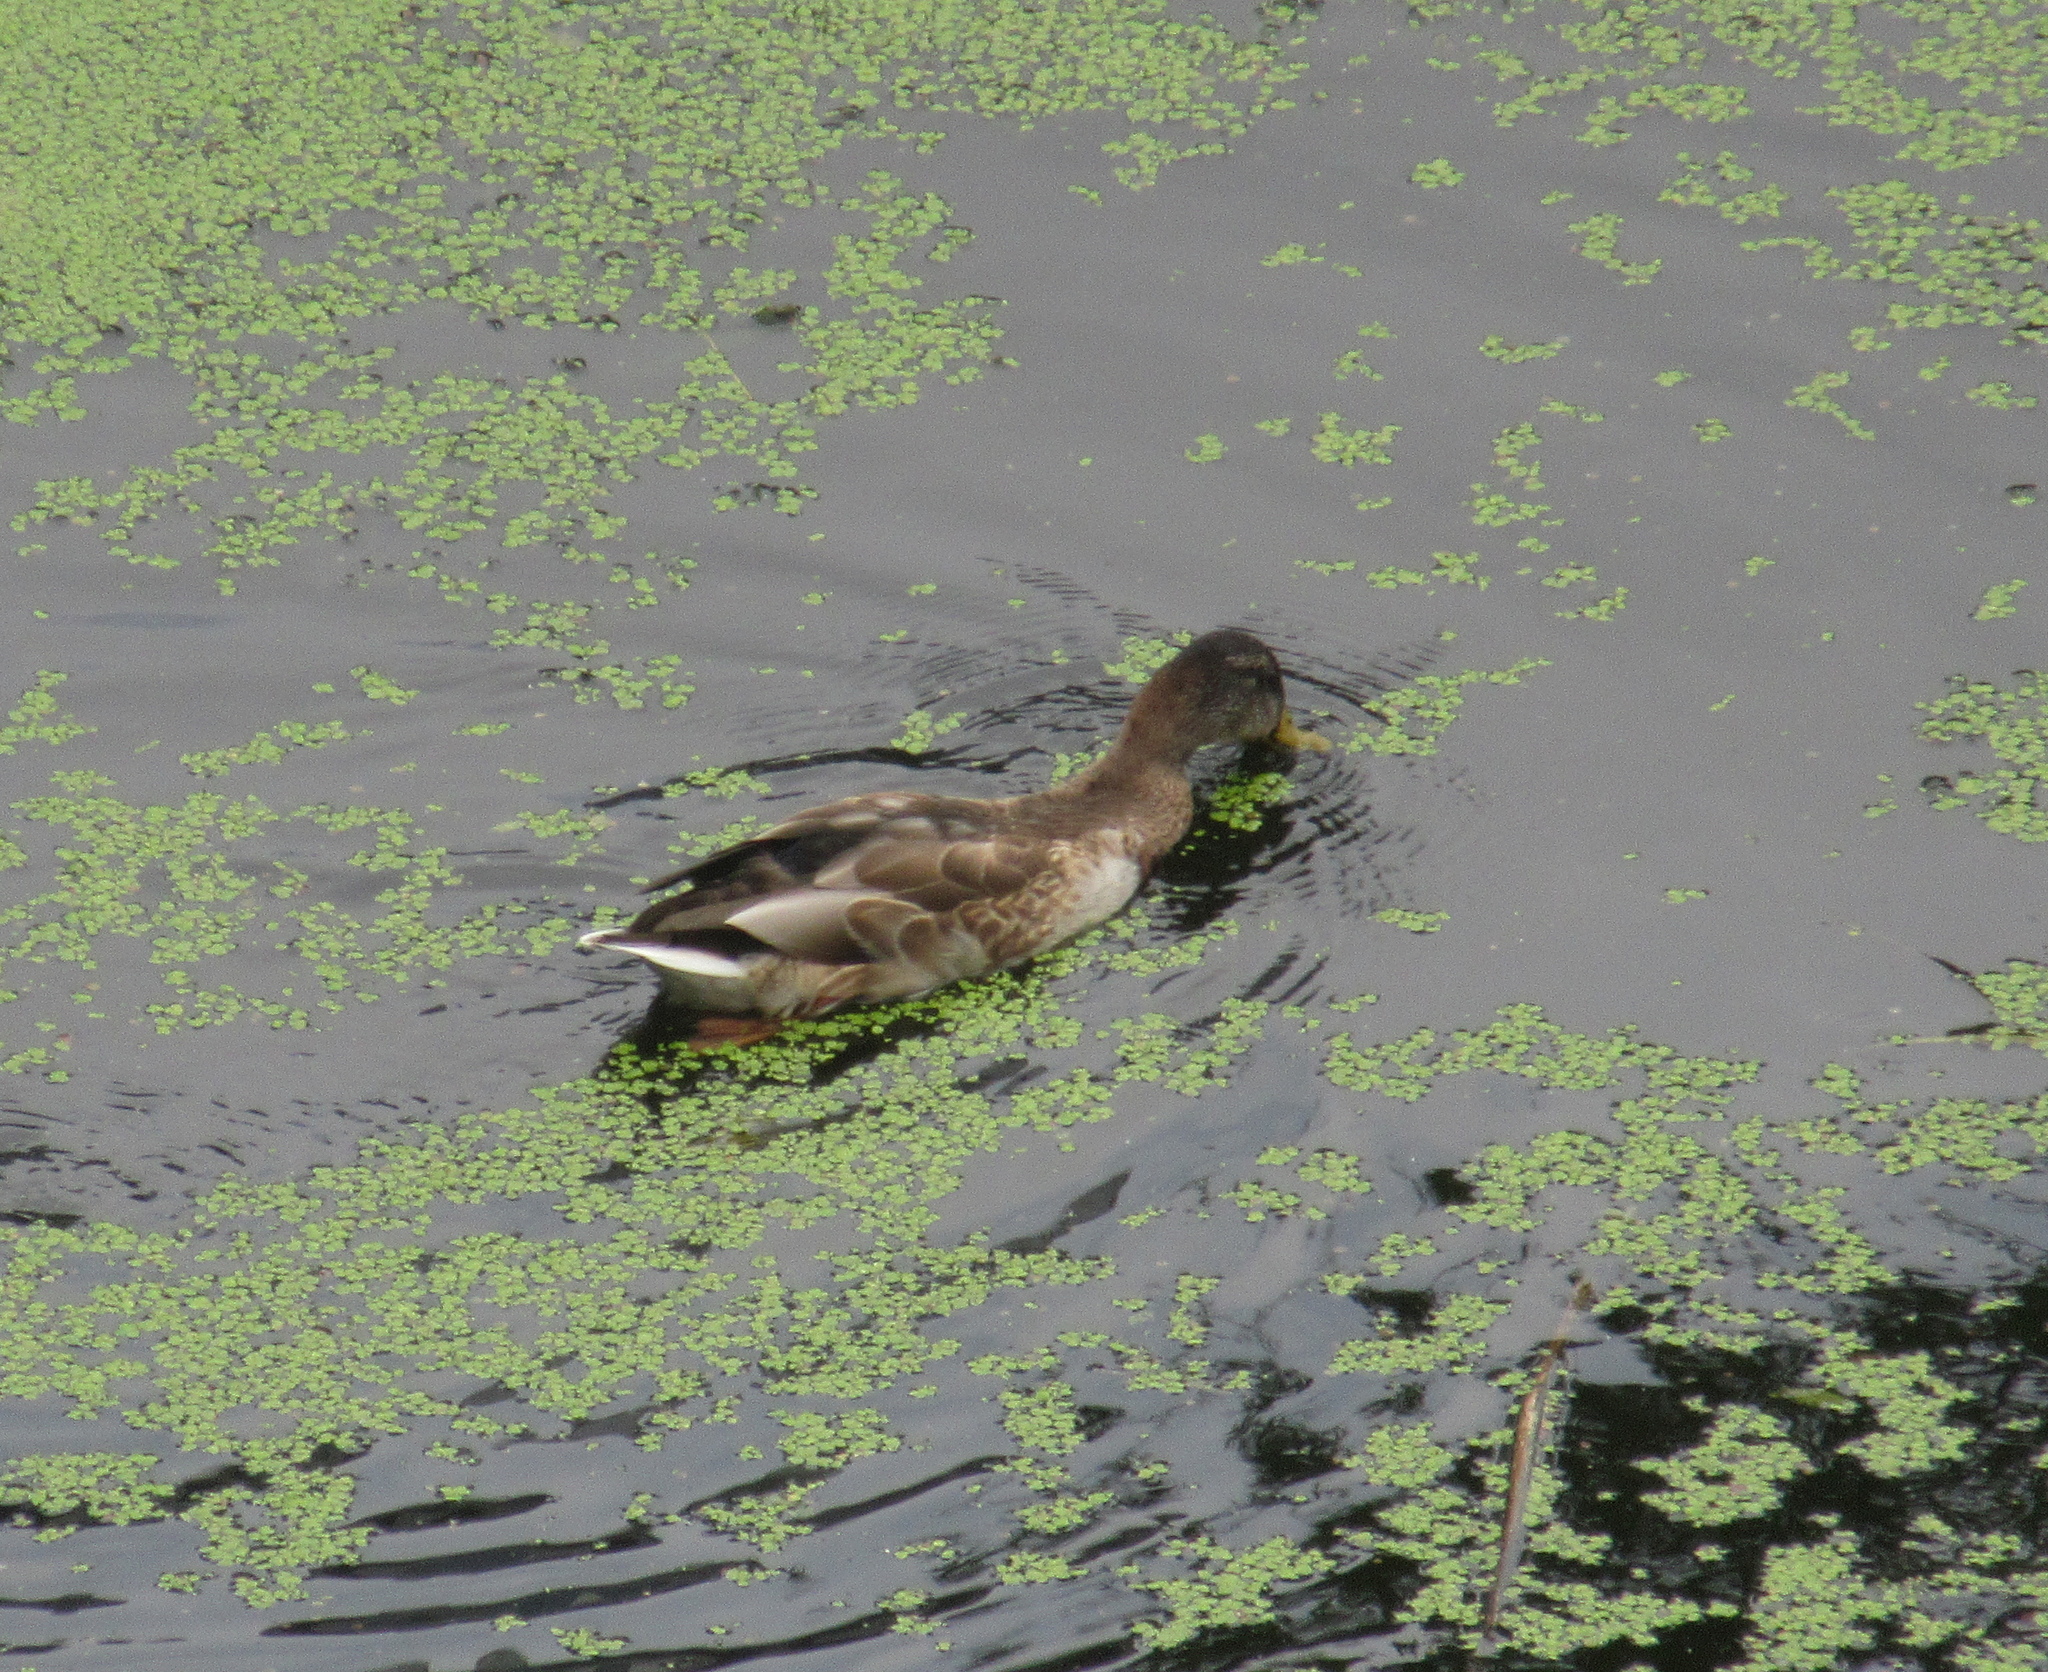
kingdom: Animalia
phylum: Chordata
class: Aves
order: Anseriformes
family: Anatidae
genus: Anas
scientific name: Anas platyrhynchos
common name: Mallard
